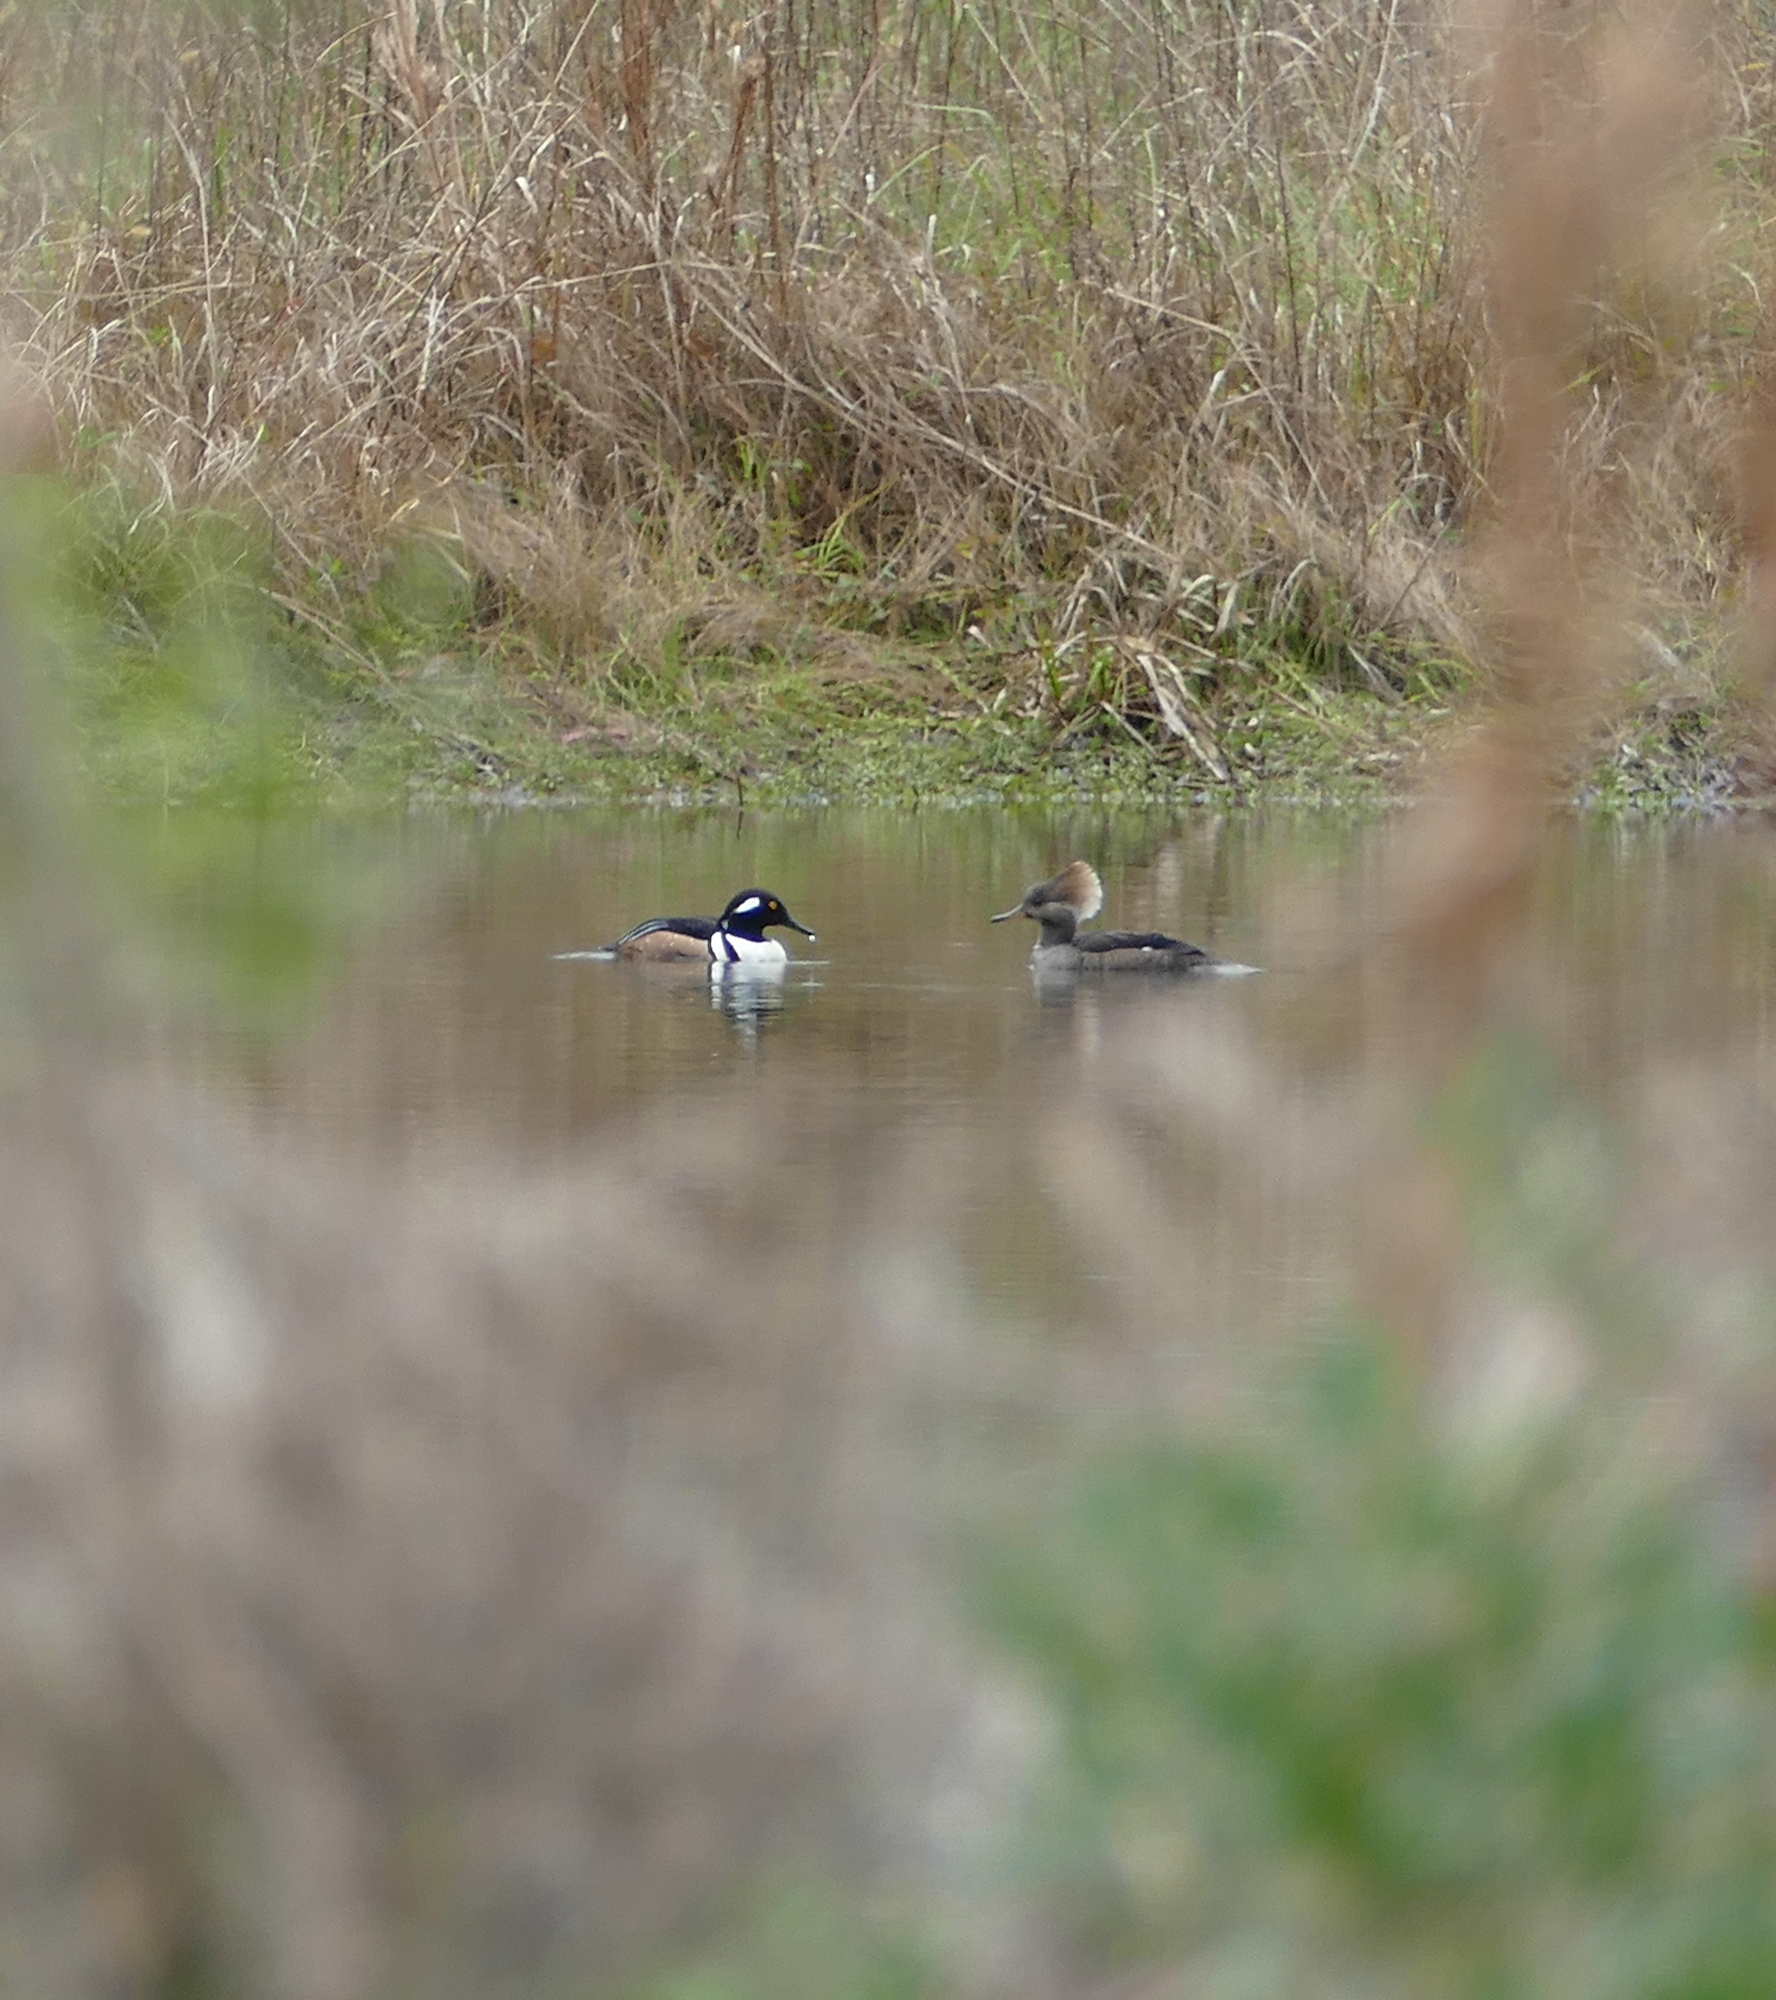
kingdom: Animalia
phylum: Chordata
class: Aves
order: Anseriformes
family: Anatidae
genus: Lophodytes
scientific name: Lophodytes cucullatus
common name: Hooded merganser
